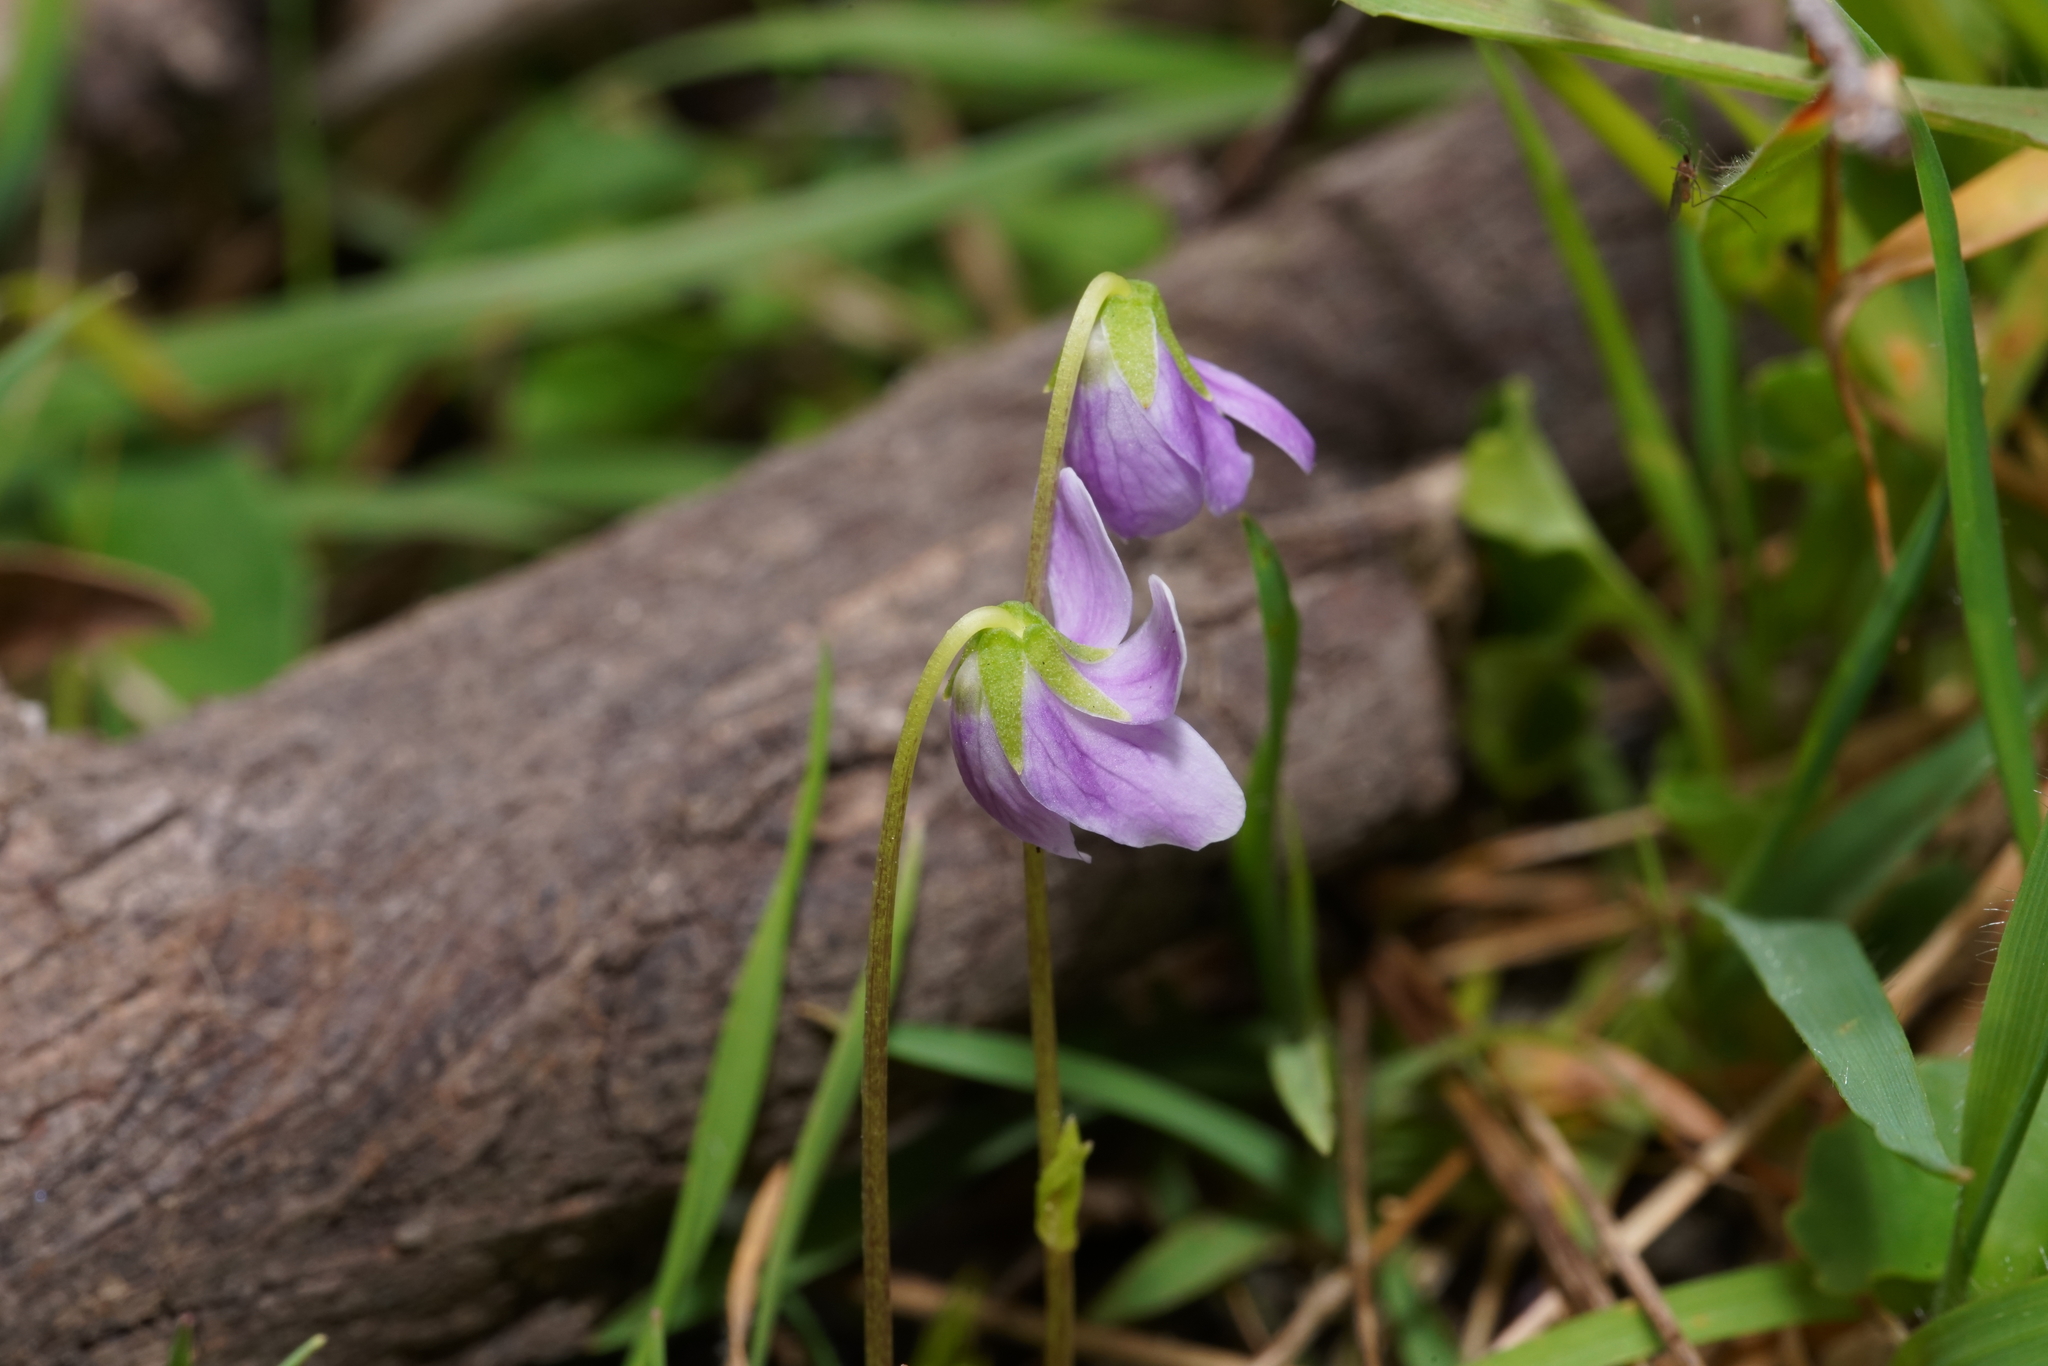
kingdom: Plantae
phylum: Tracheophyta
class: Magnoliopsida
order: Malpighiales
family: Violaceae
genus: Viola
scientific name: Viola hederacea
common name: Australian violet
